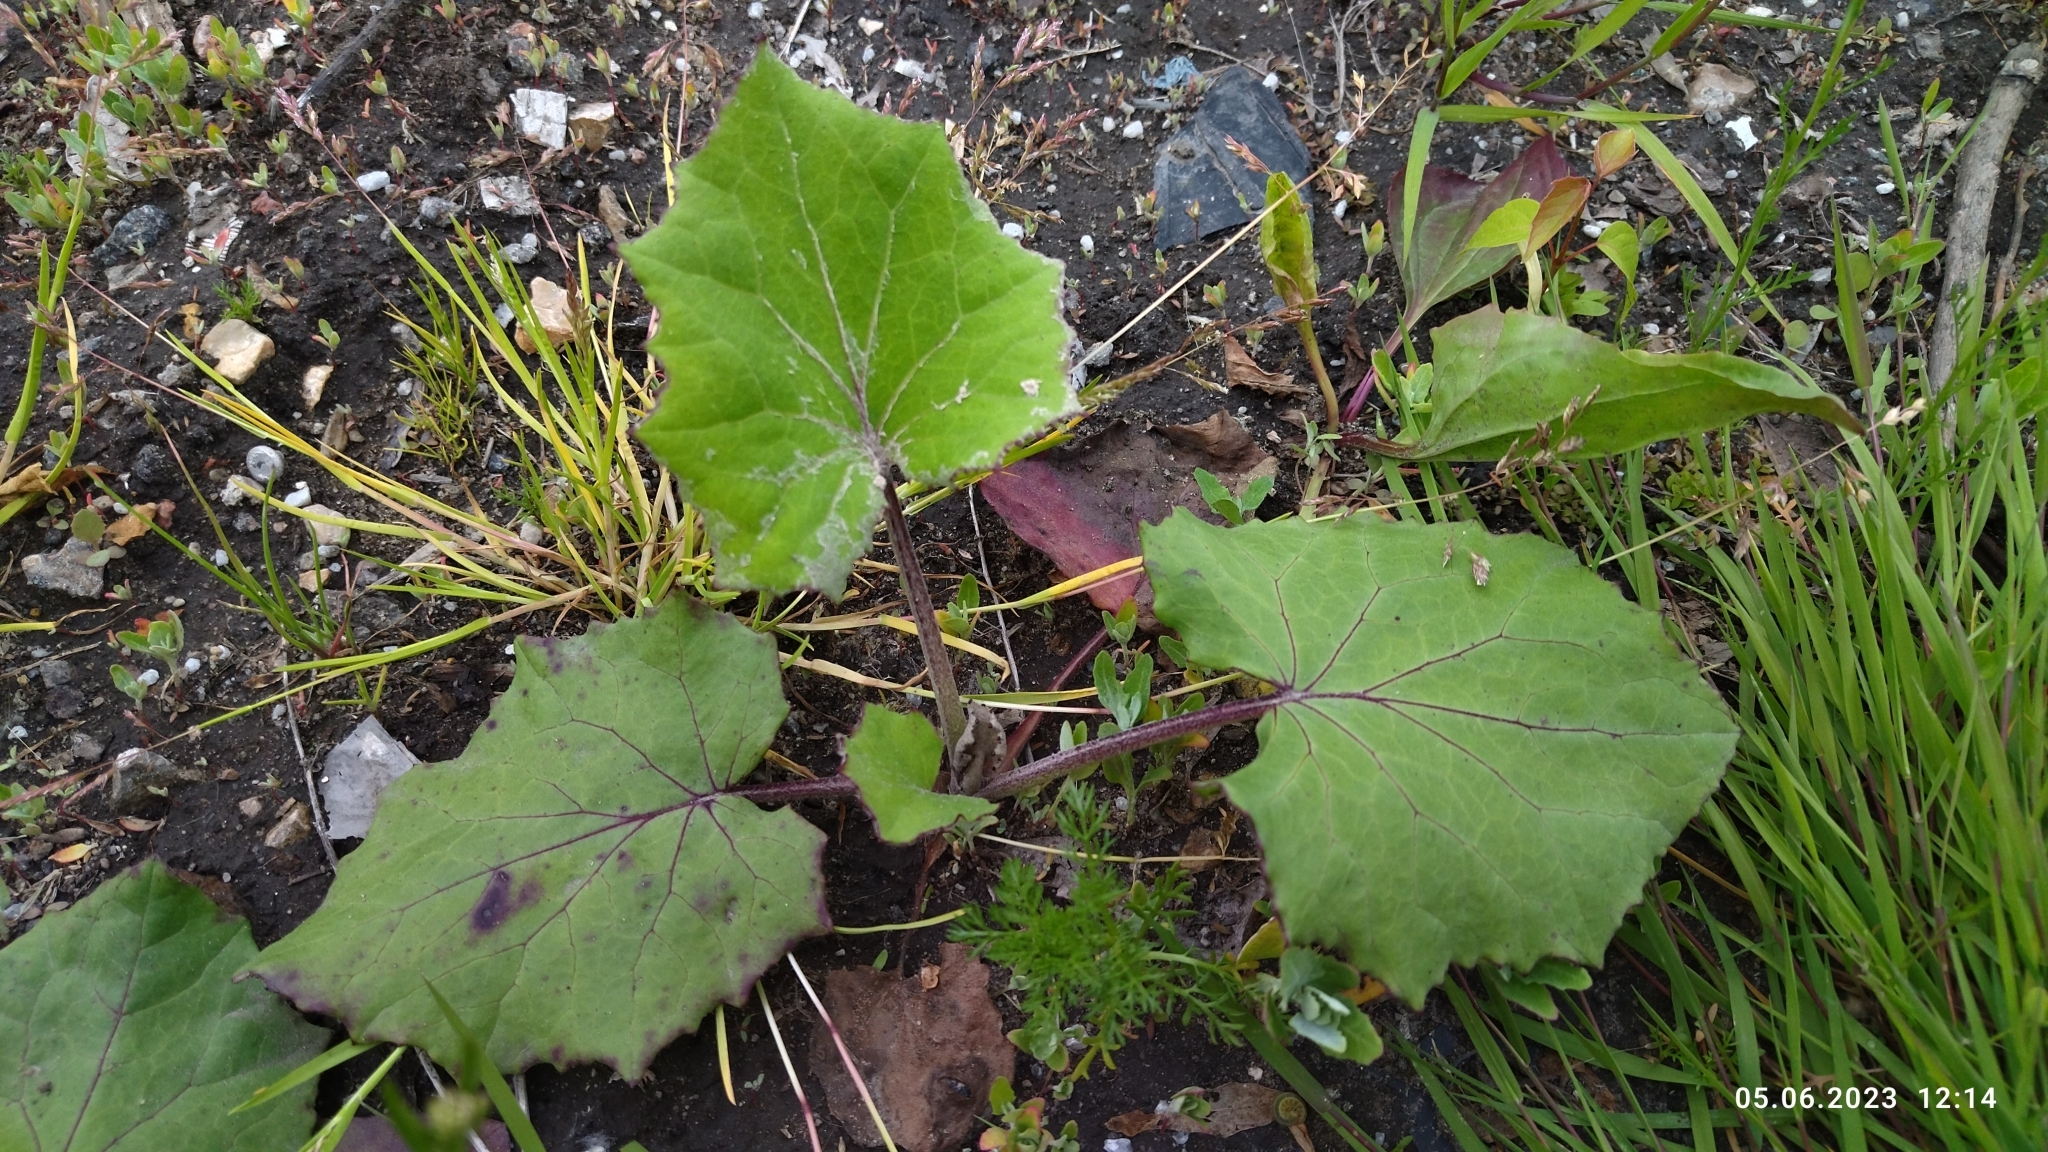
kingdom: Plantae
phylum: Tracheophyta
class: Magnoliopsida
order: Asterales
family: Asteraceae
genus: Tussilago
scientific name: Tussilago farfara
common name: Coltsfoot
